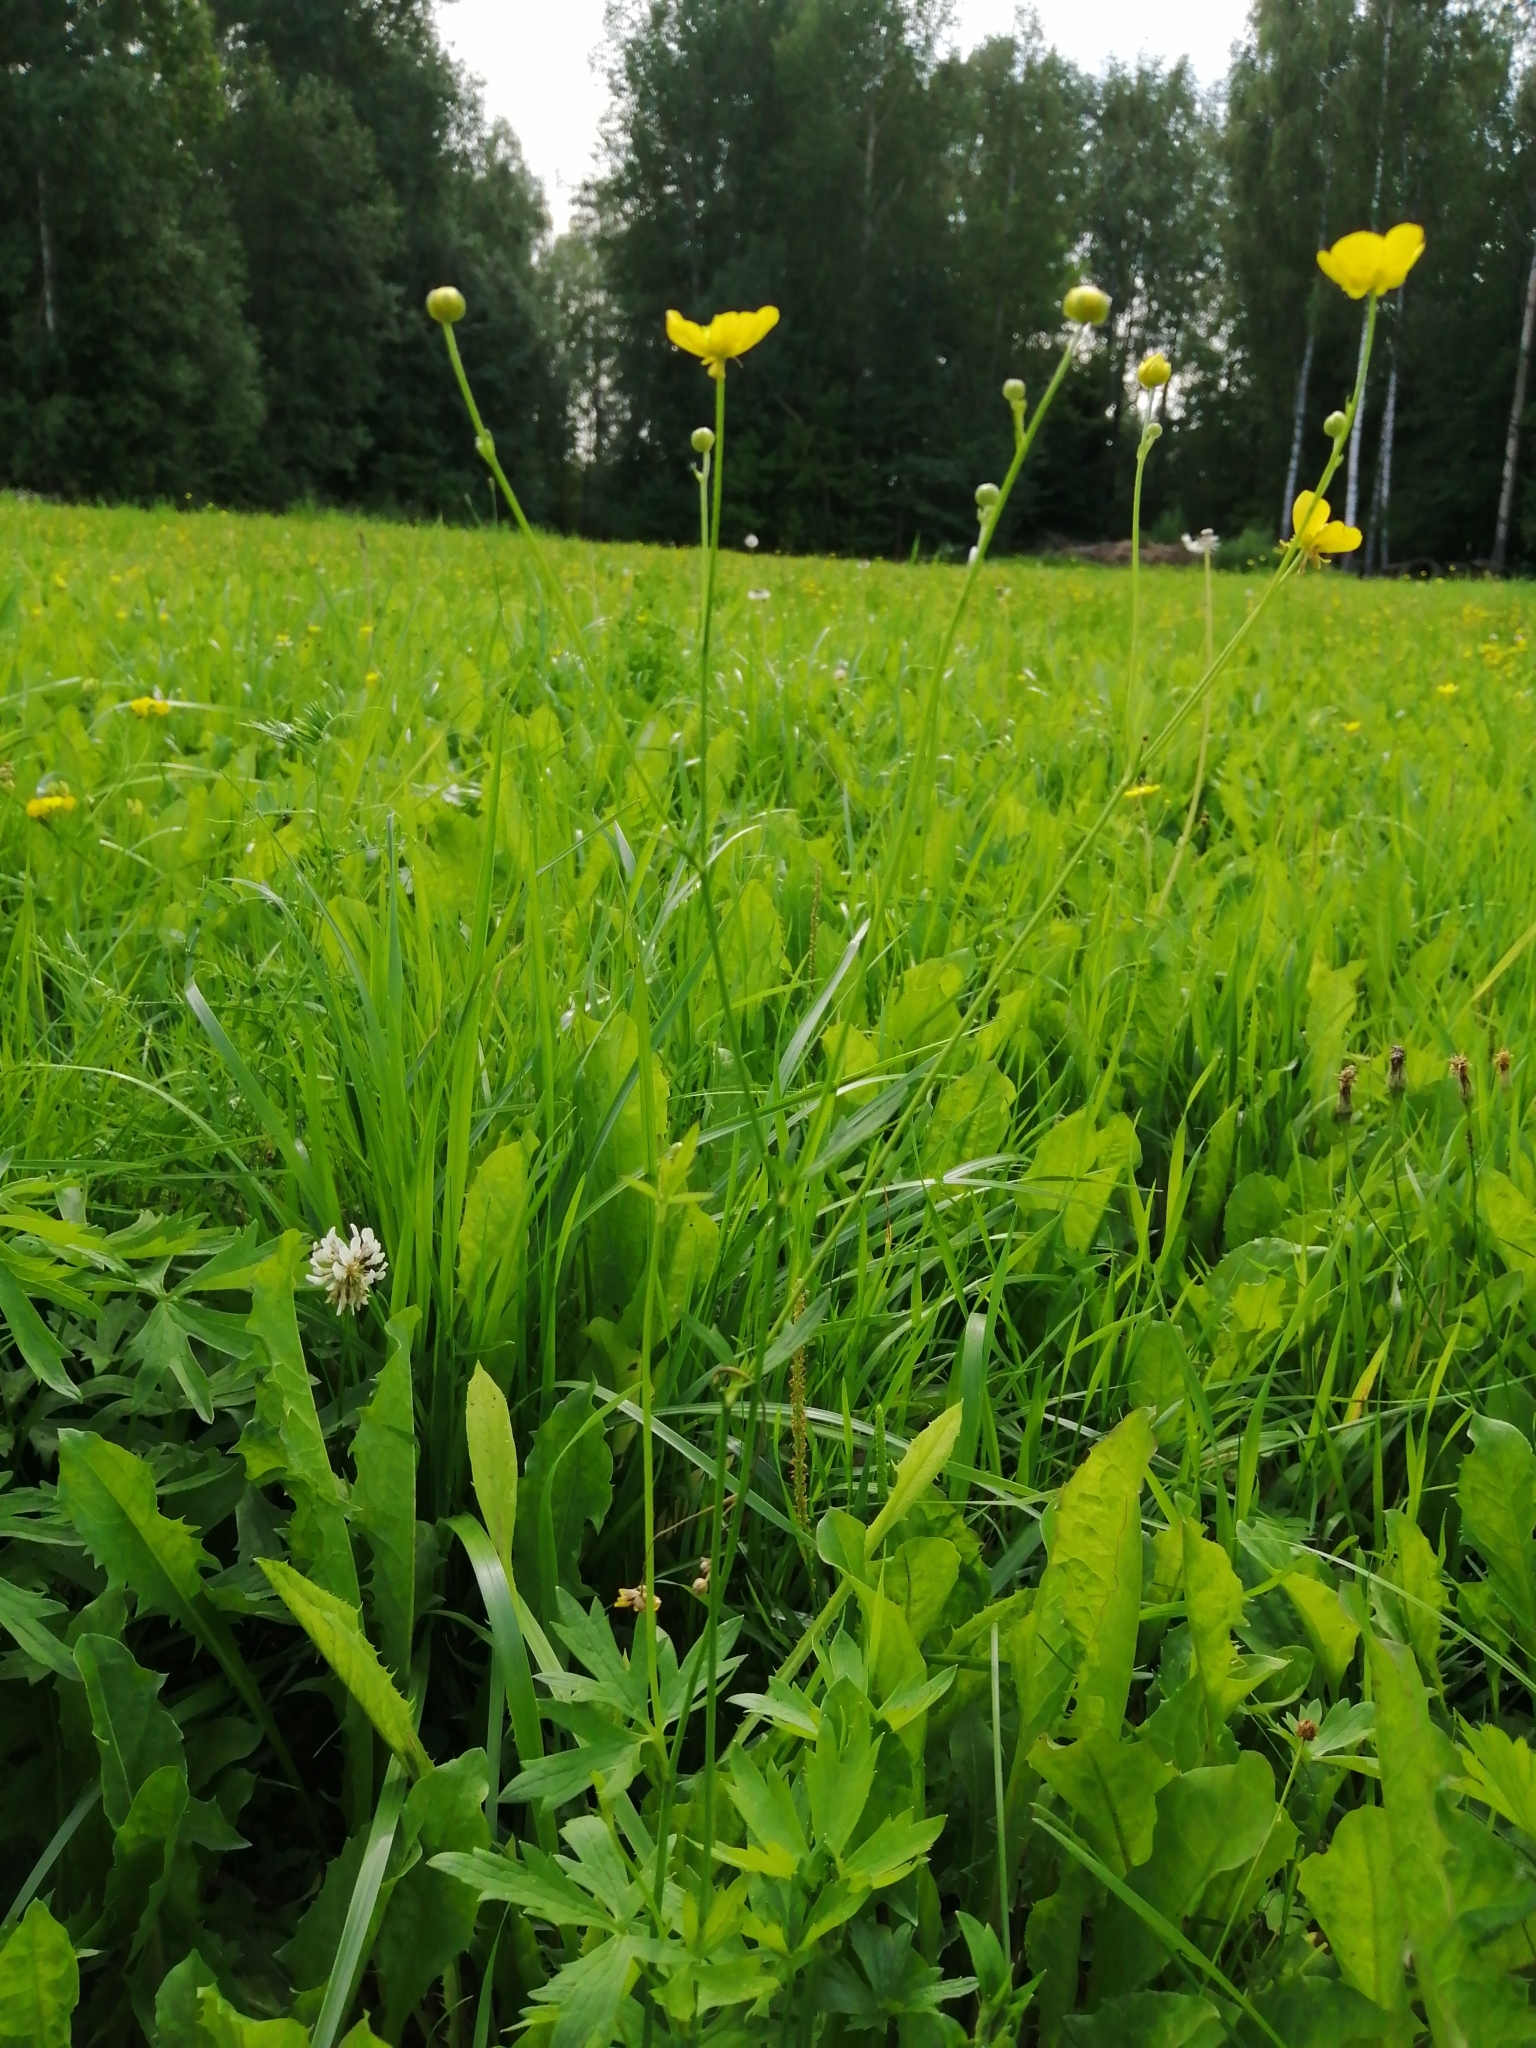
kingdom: Plantae
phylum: Tracheophyta
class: Magnoliopsida
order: Ranunculales
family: Ranunculaceae
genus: Ranunculus
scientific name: Ranunculus acris
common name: Meadow buttercup
